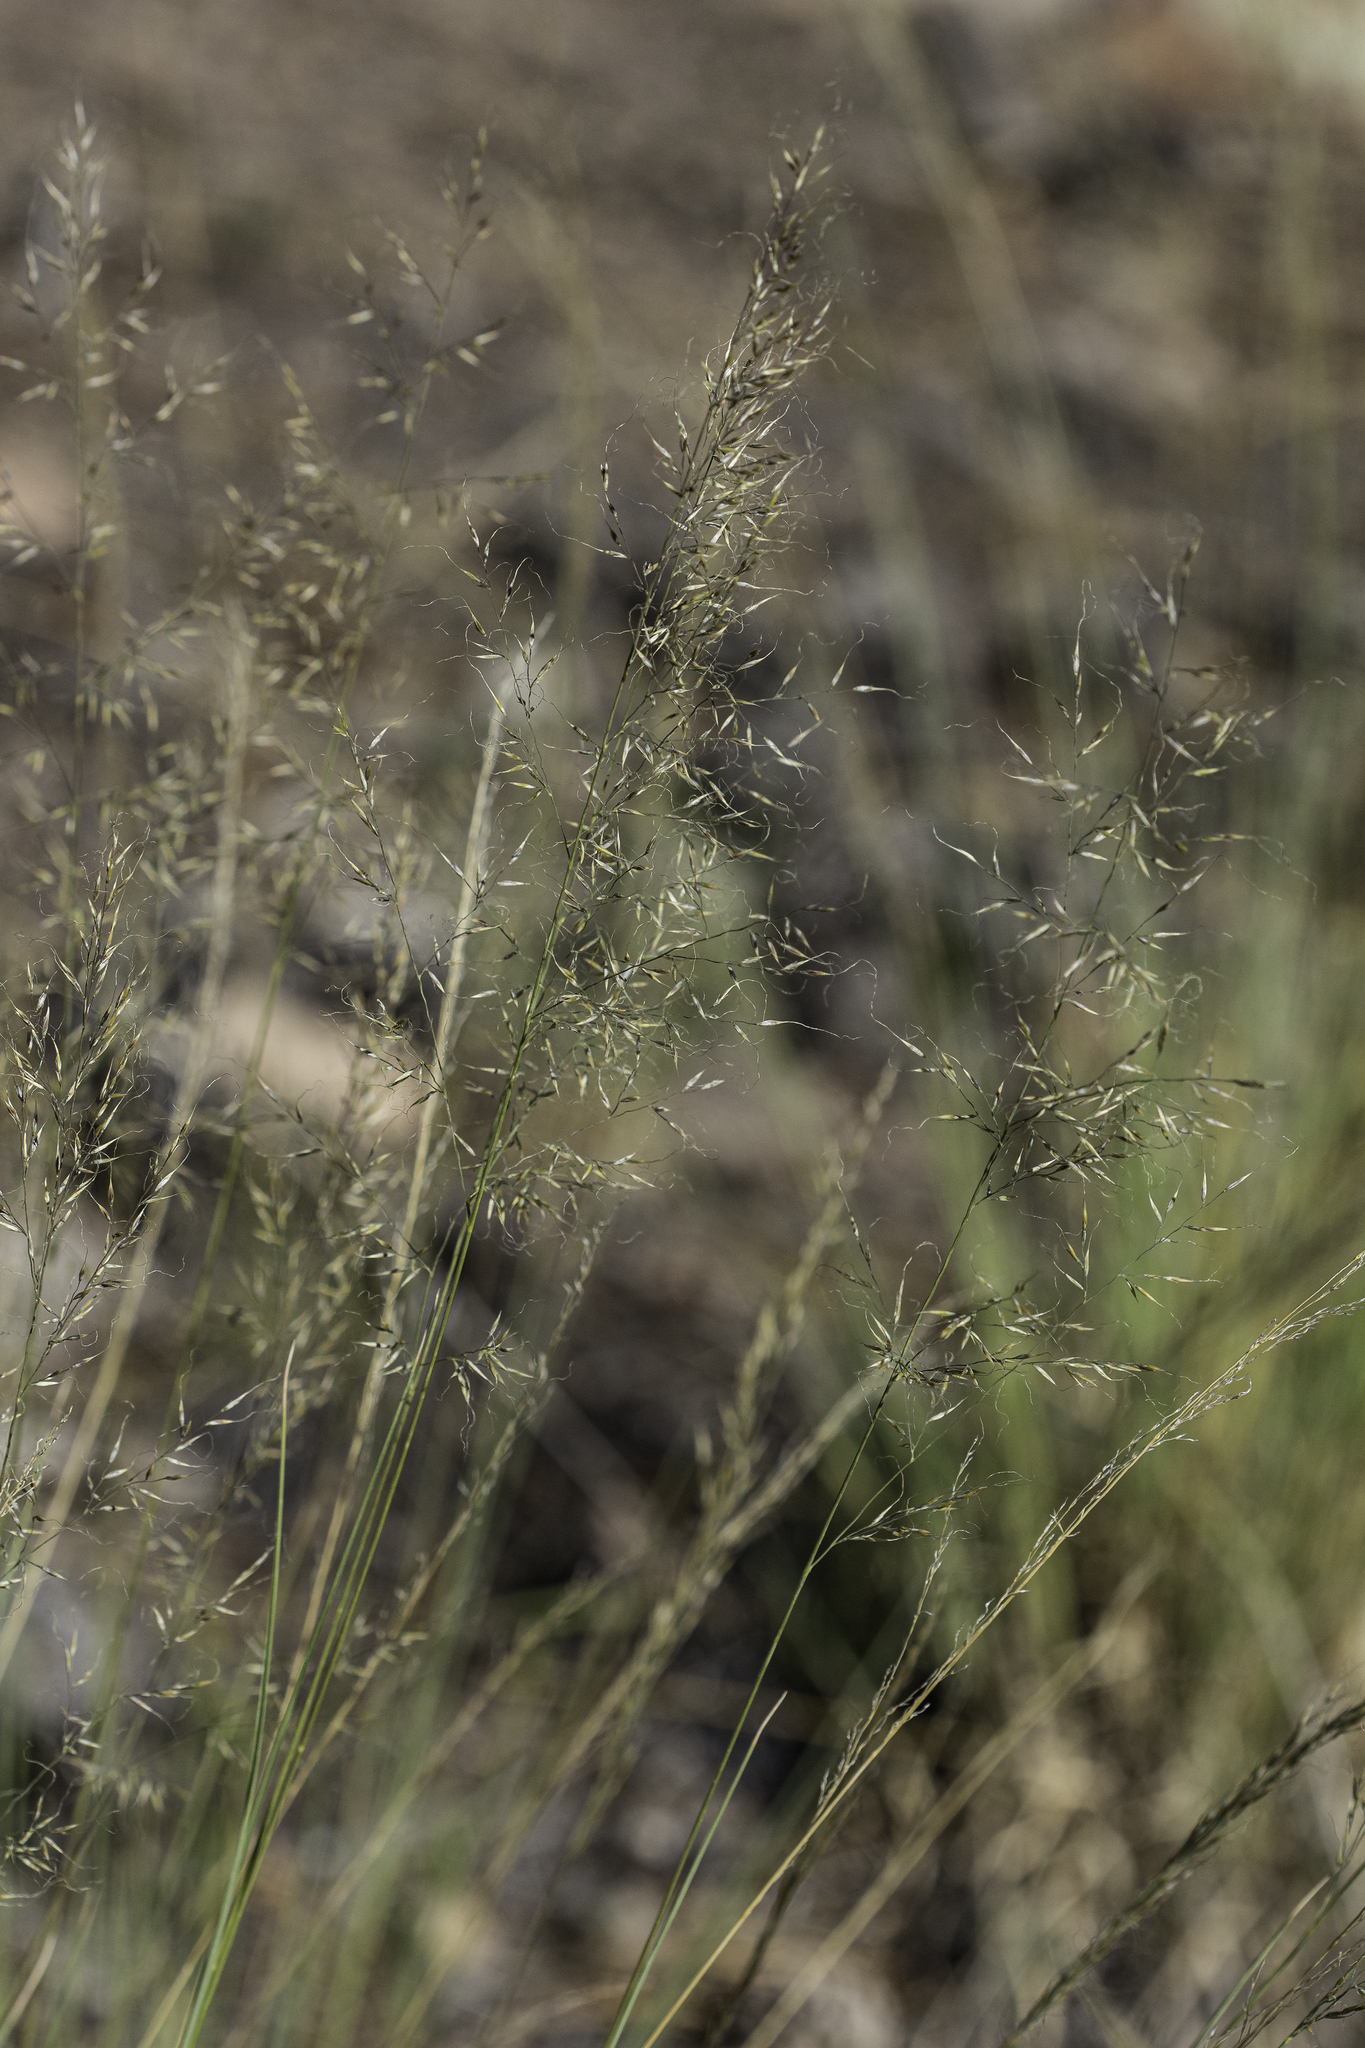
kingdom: Plantae
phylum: Tracheophyta
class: Liliopsida
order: Poales
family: Poaceae
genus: Muhlenbergia
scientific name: Muhlenbergia montana
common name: Mountain muhly
